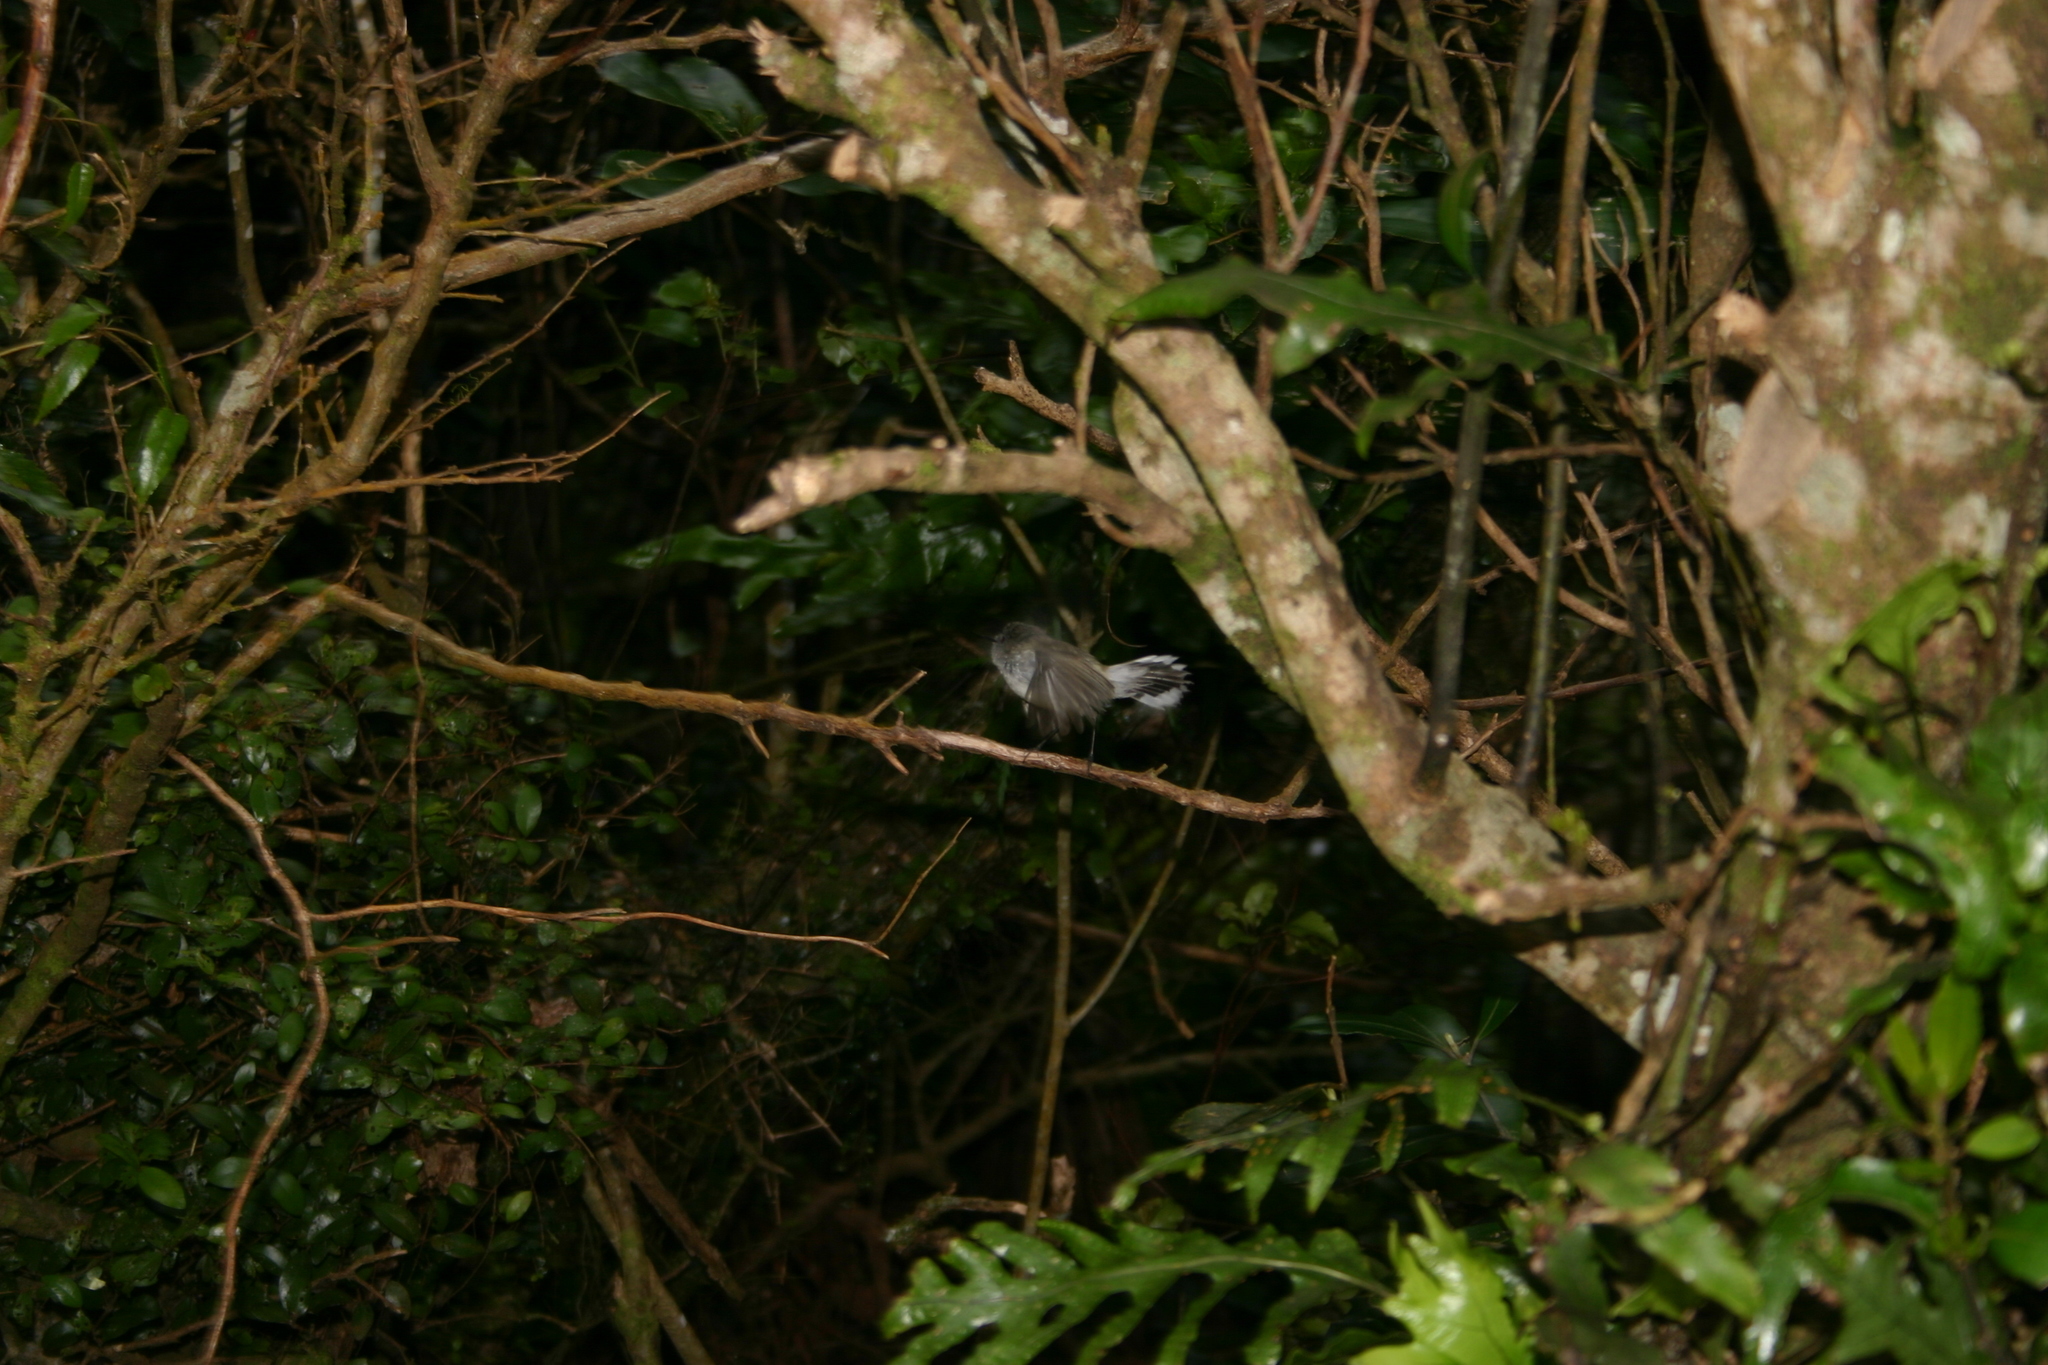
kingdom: Animalia
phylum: Chordata
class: Aves
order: Passeriformes
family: Acanthizidae
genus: Gerygone
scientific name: Gerygone igata
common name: Grey gerygone
